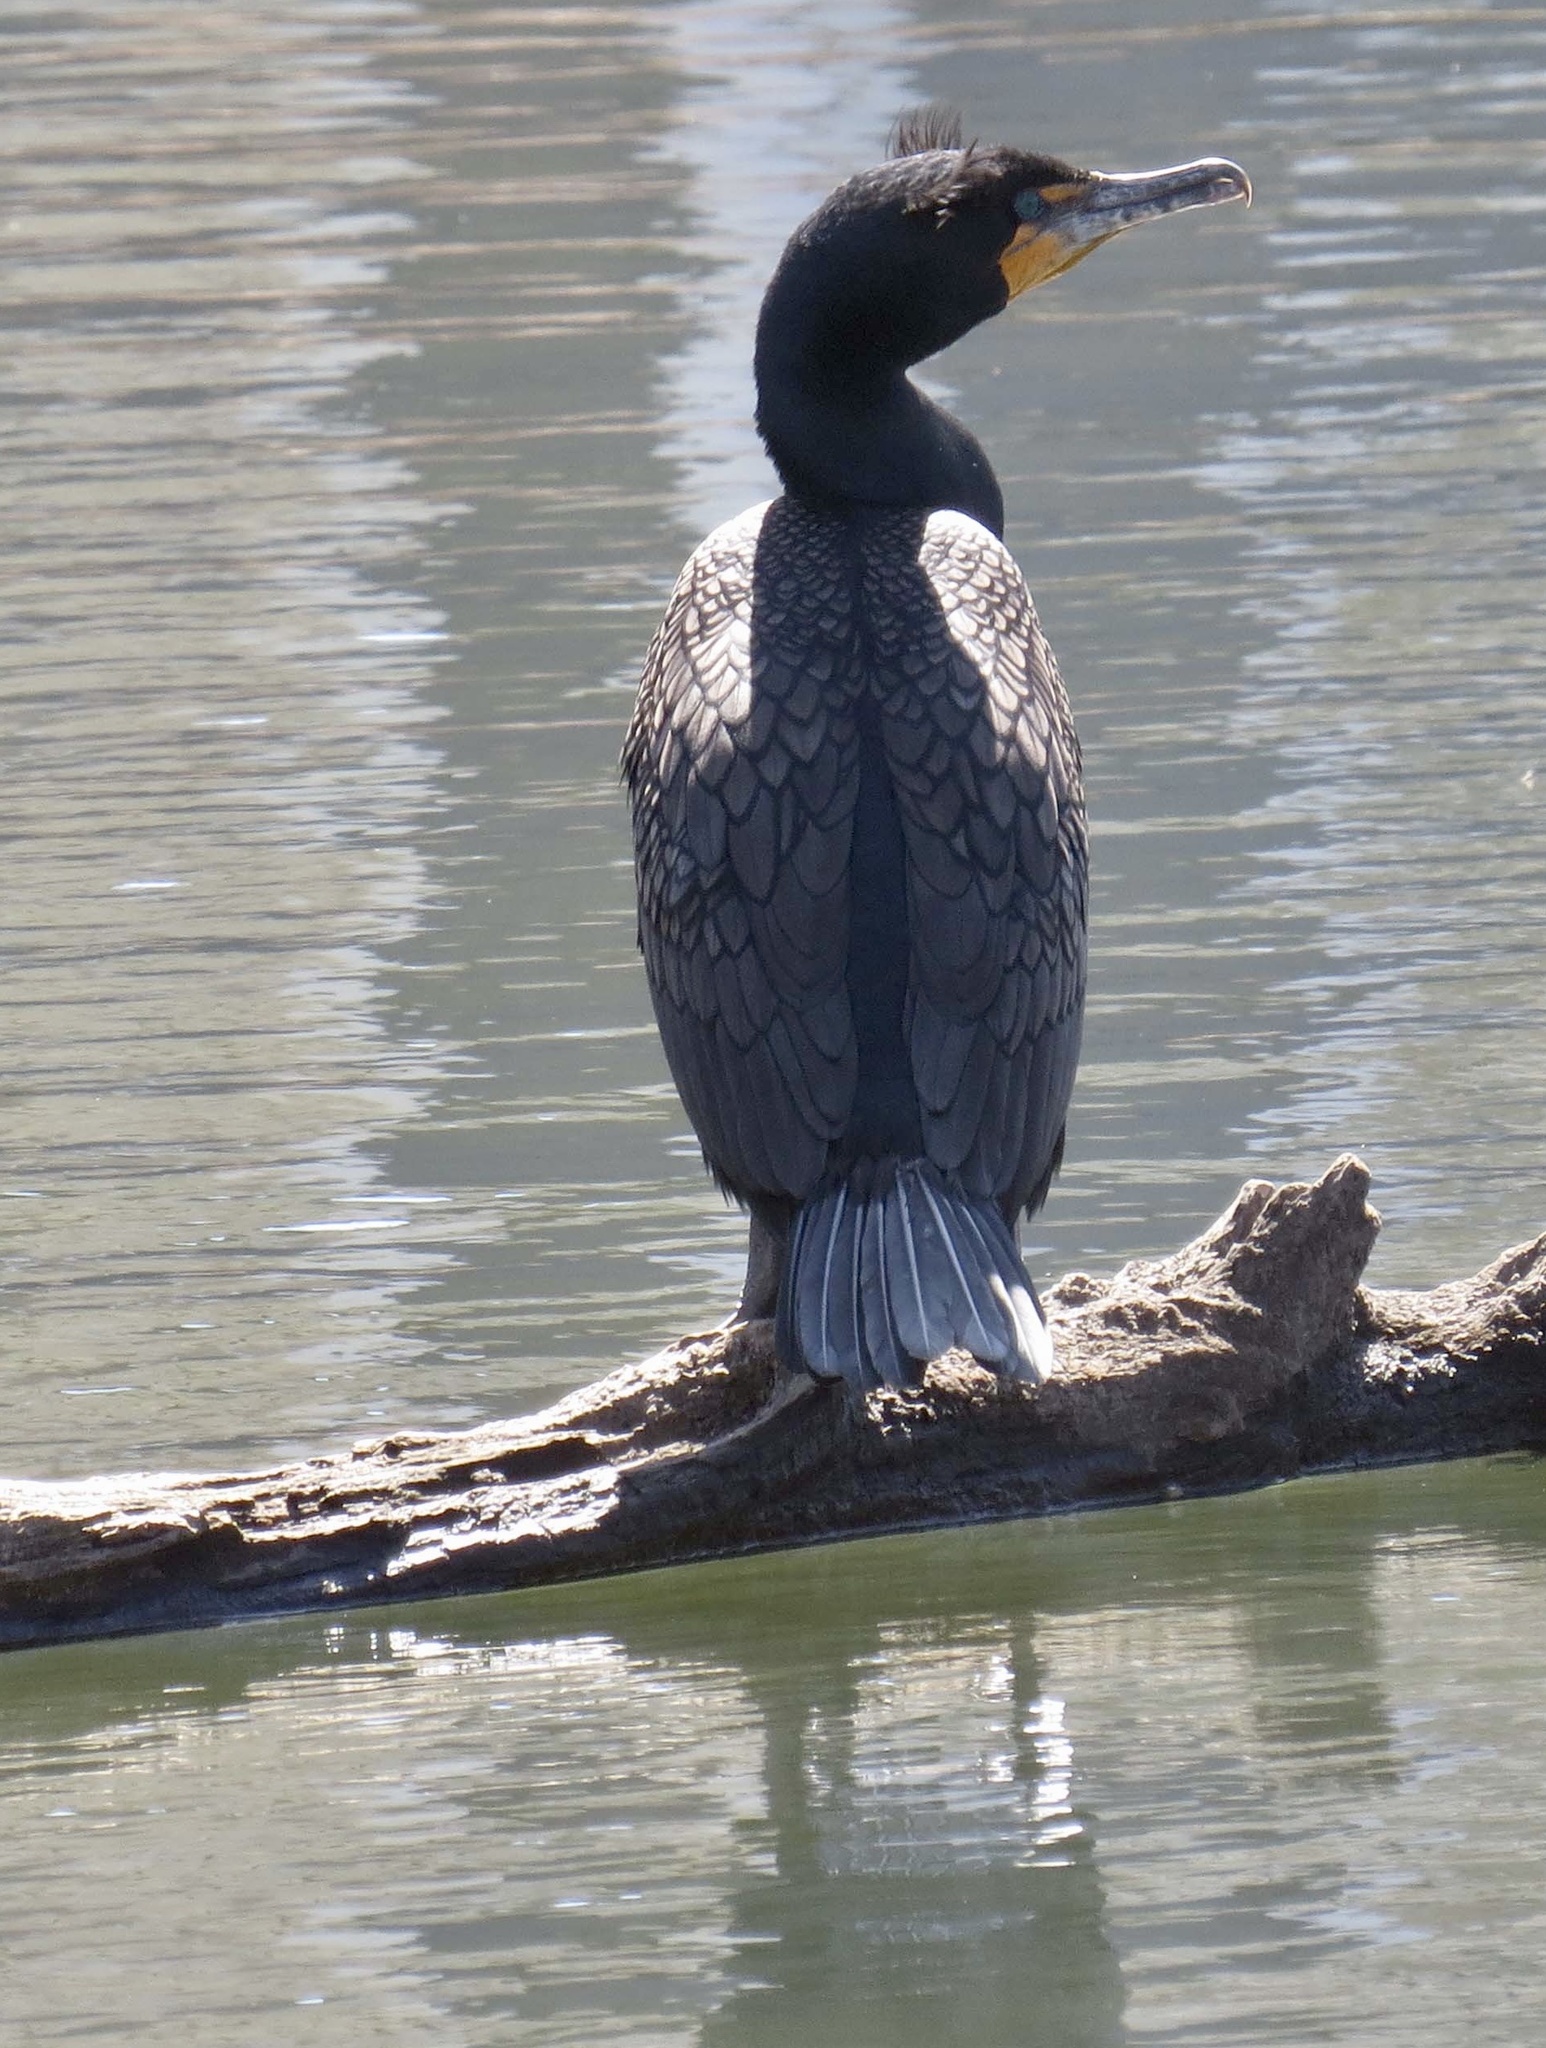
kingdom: Animalia
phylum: Chordata
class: Aves
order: Suliformes
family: Phalacrocoracidae
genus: Phalacrocorax
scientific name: Phalacrocorax auritus
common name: Double-crested cormorant
